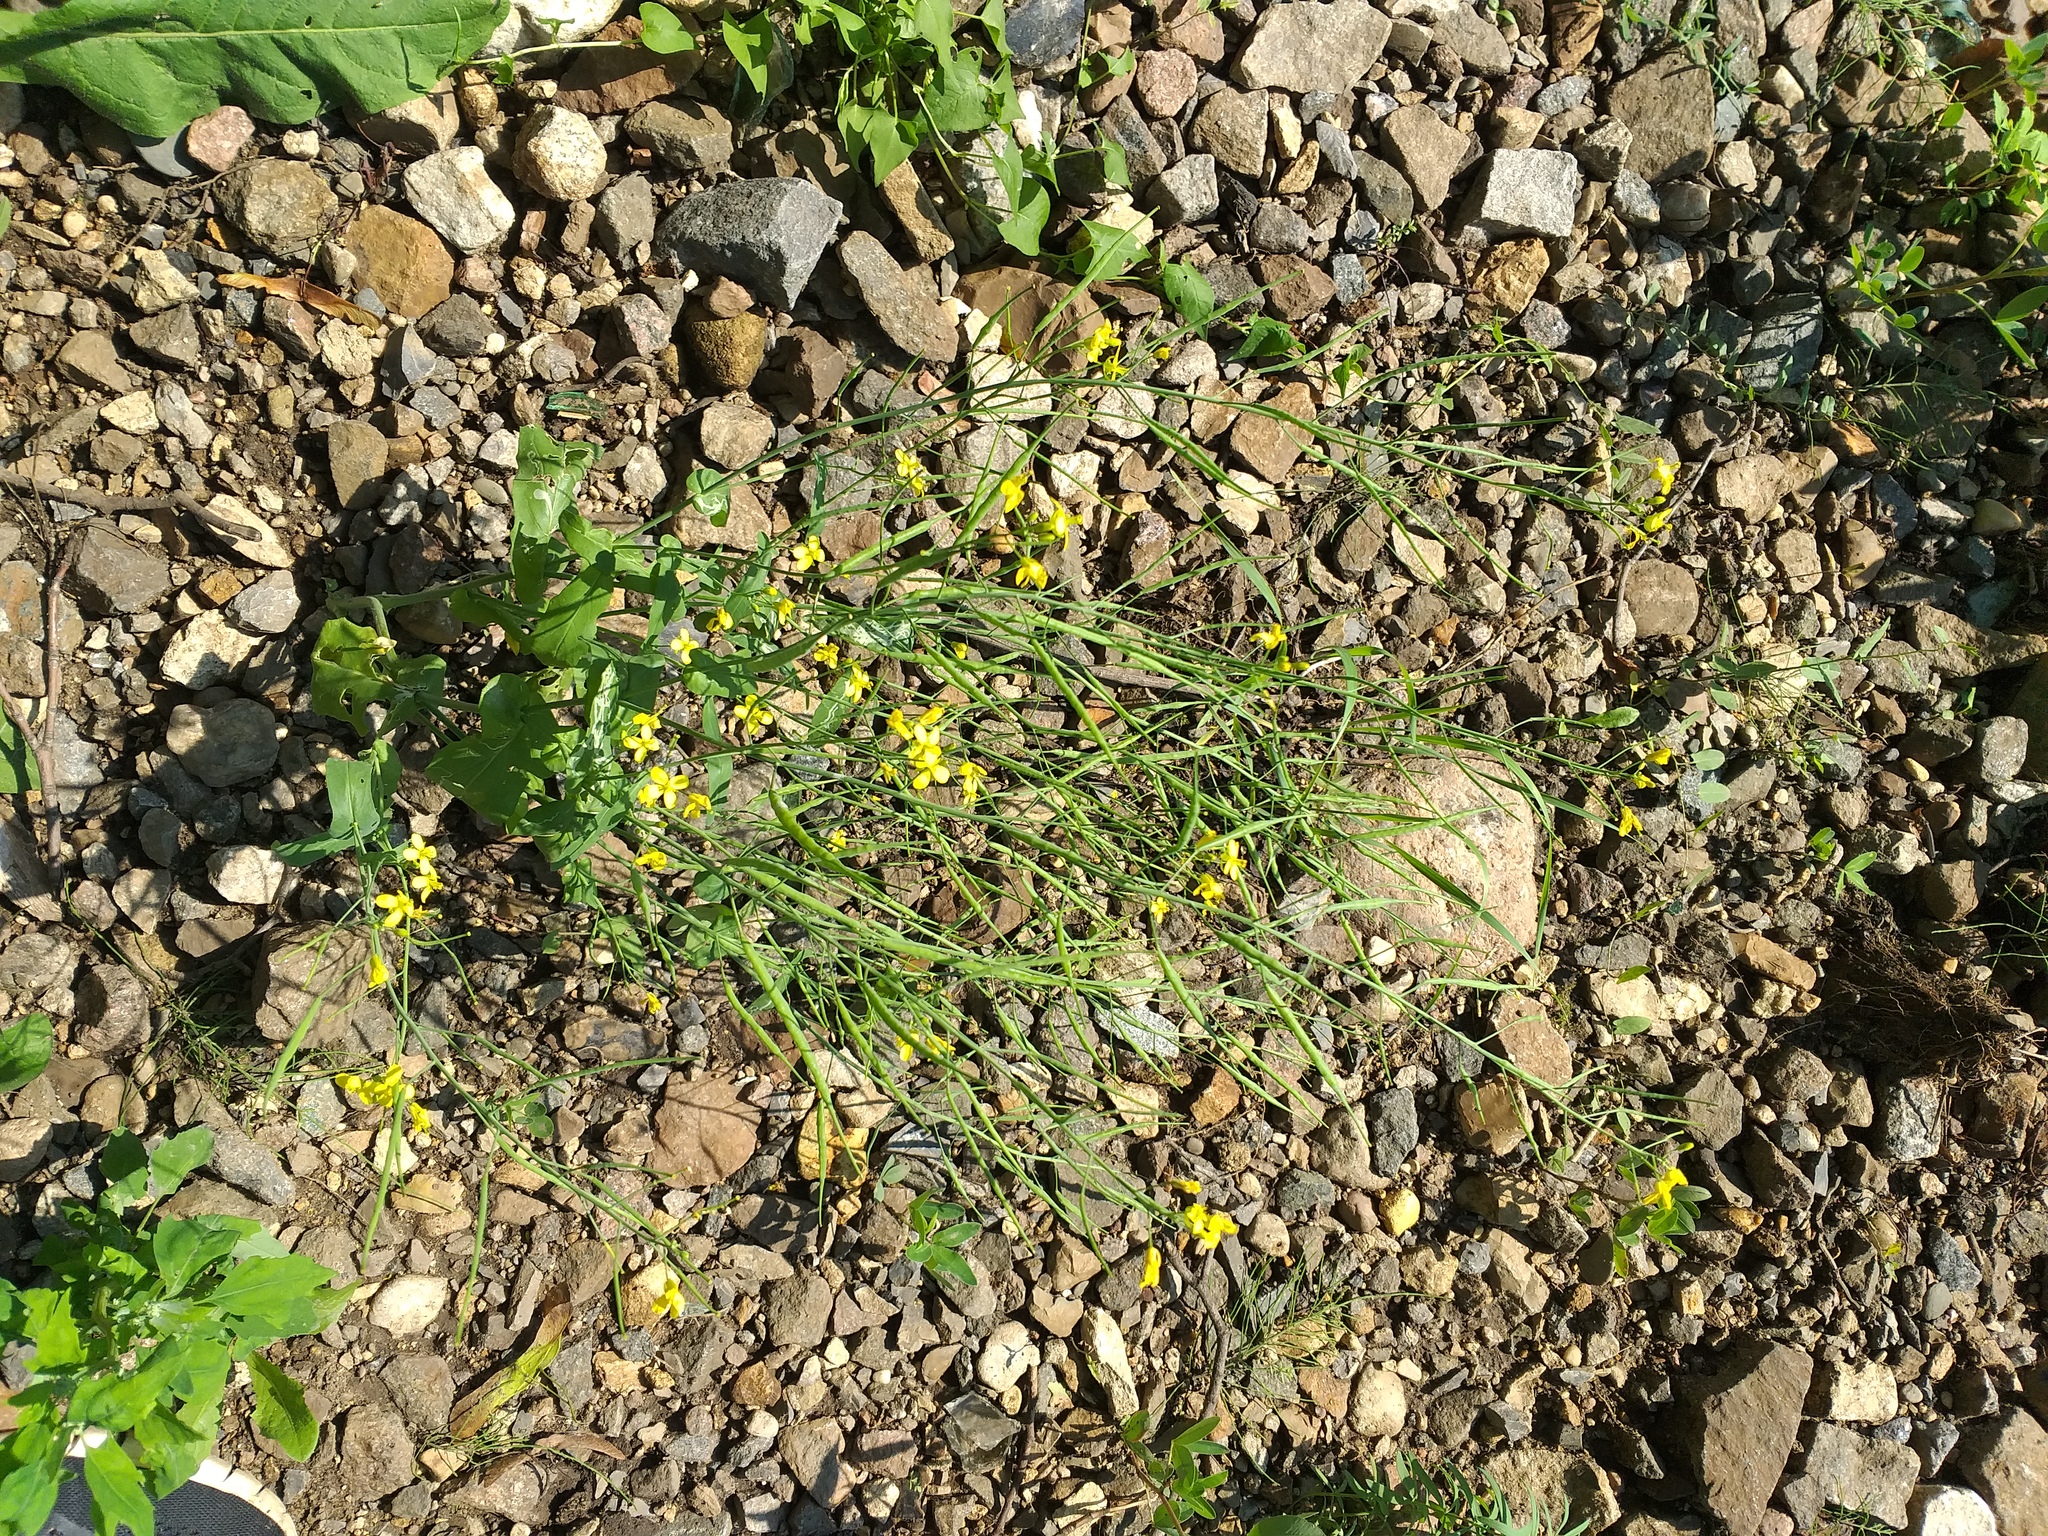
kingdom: Plantae
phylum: Tracheophyta
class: Magnoliopsida
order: Brassicales
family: Brassicaceae
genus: Brassica
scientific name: Brassica rapa
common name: Field mustard
